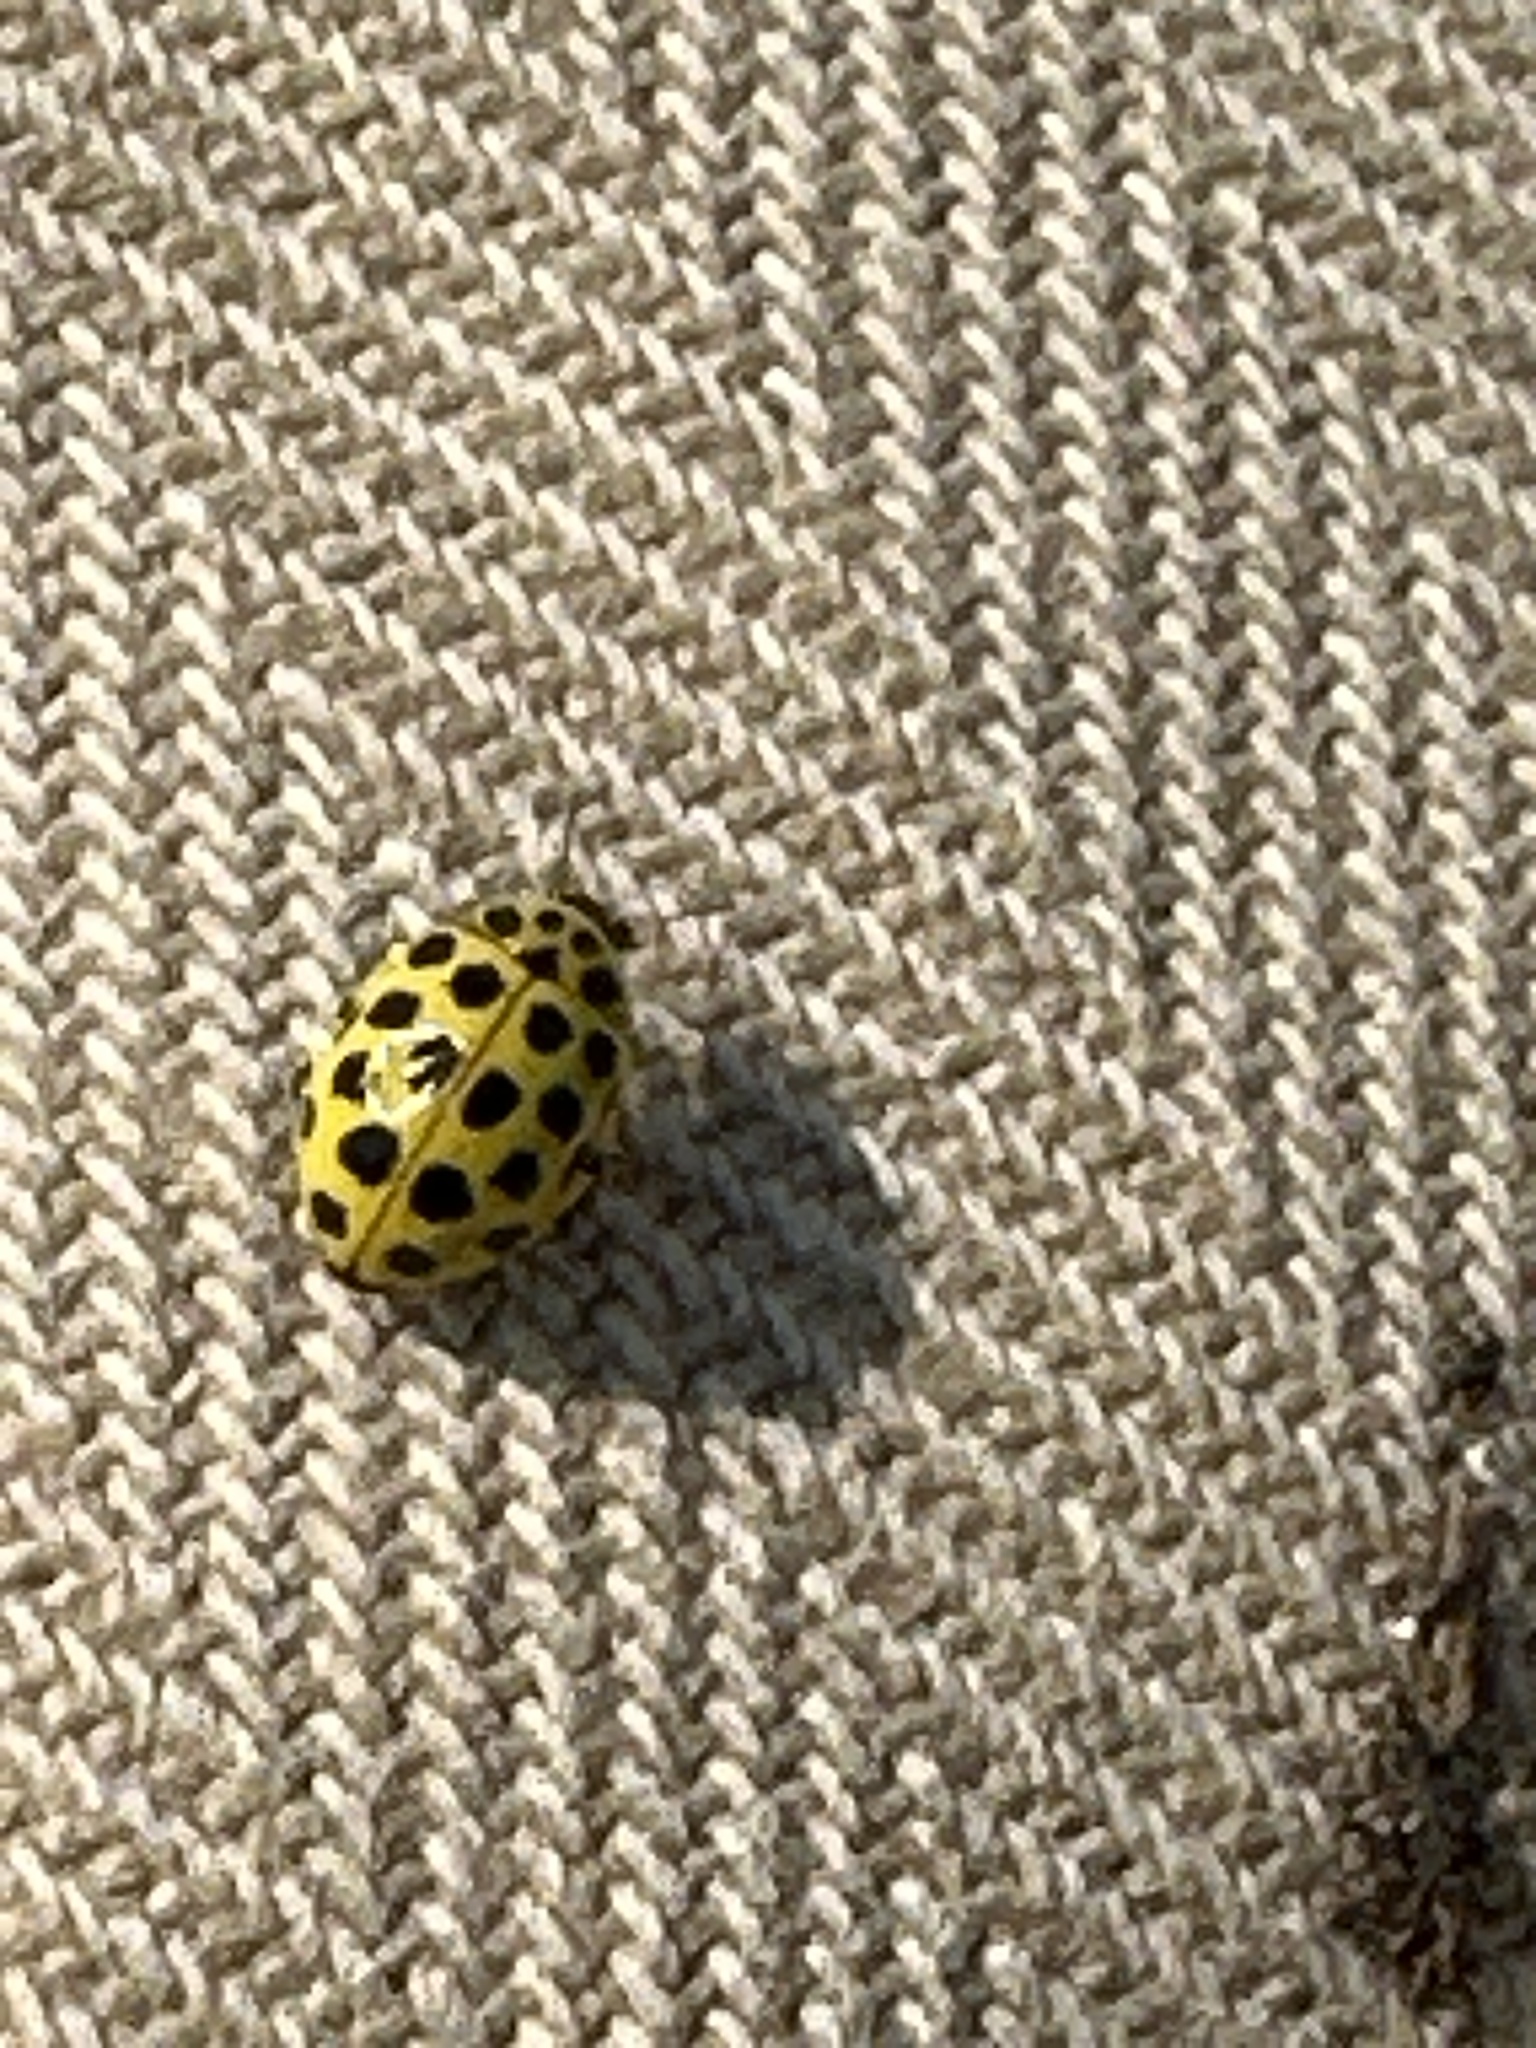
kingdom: Animalia
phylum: Arthropoda
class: Insecta
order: Coleoptera
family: Coccinellidae
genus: Psyllobora
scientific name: Psyllobora vigintiduopunctata
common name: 22-spot ladybird
